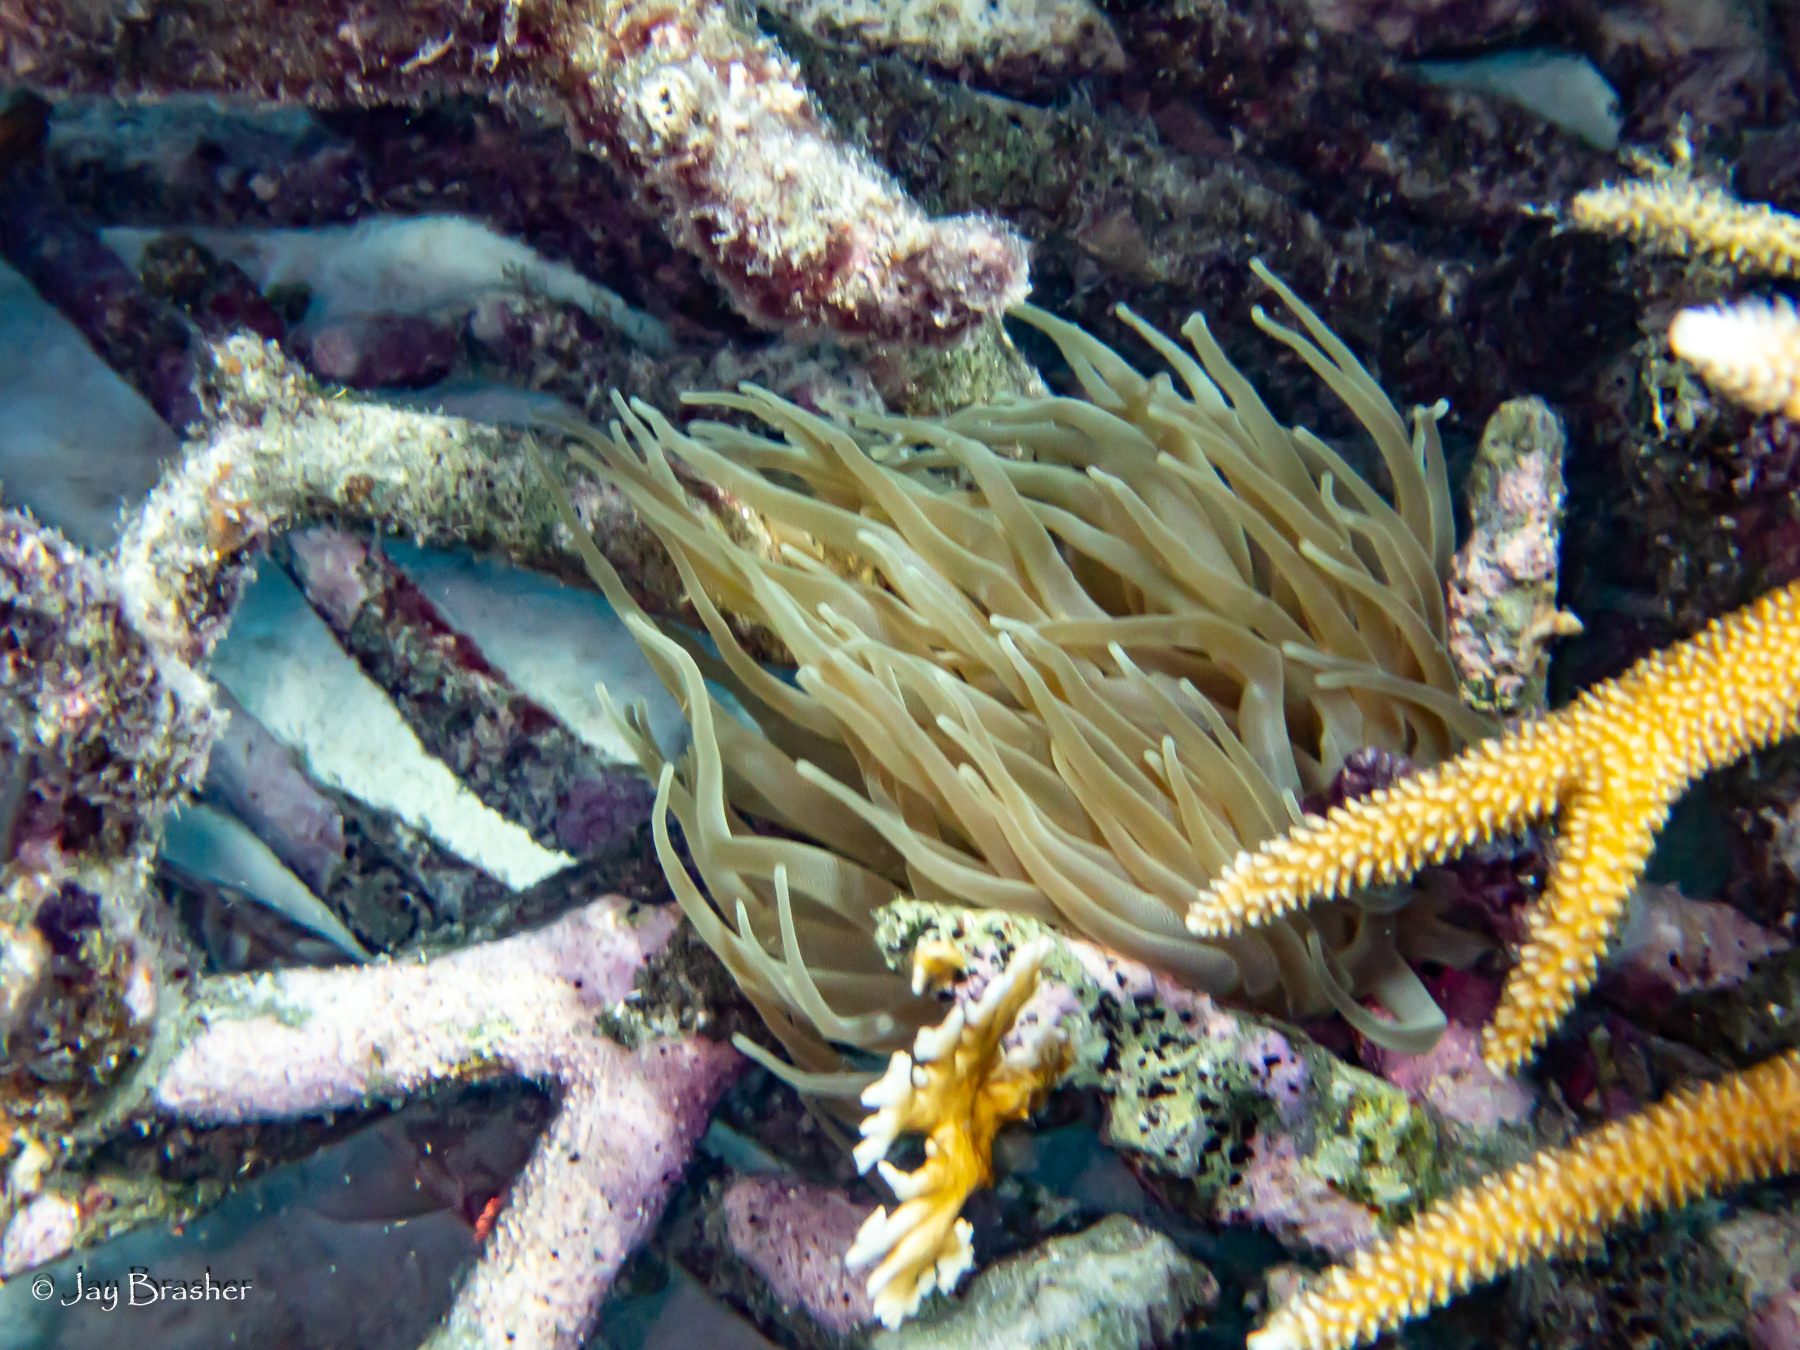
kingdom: Animalia
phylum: Cnidaria
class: Anthozoa
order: Actiniaria
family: Actiniidae
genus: Condylactis
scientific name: Condylactis gigantea
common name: Giant caribbean anemone
